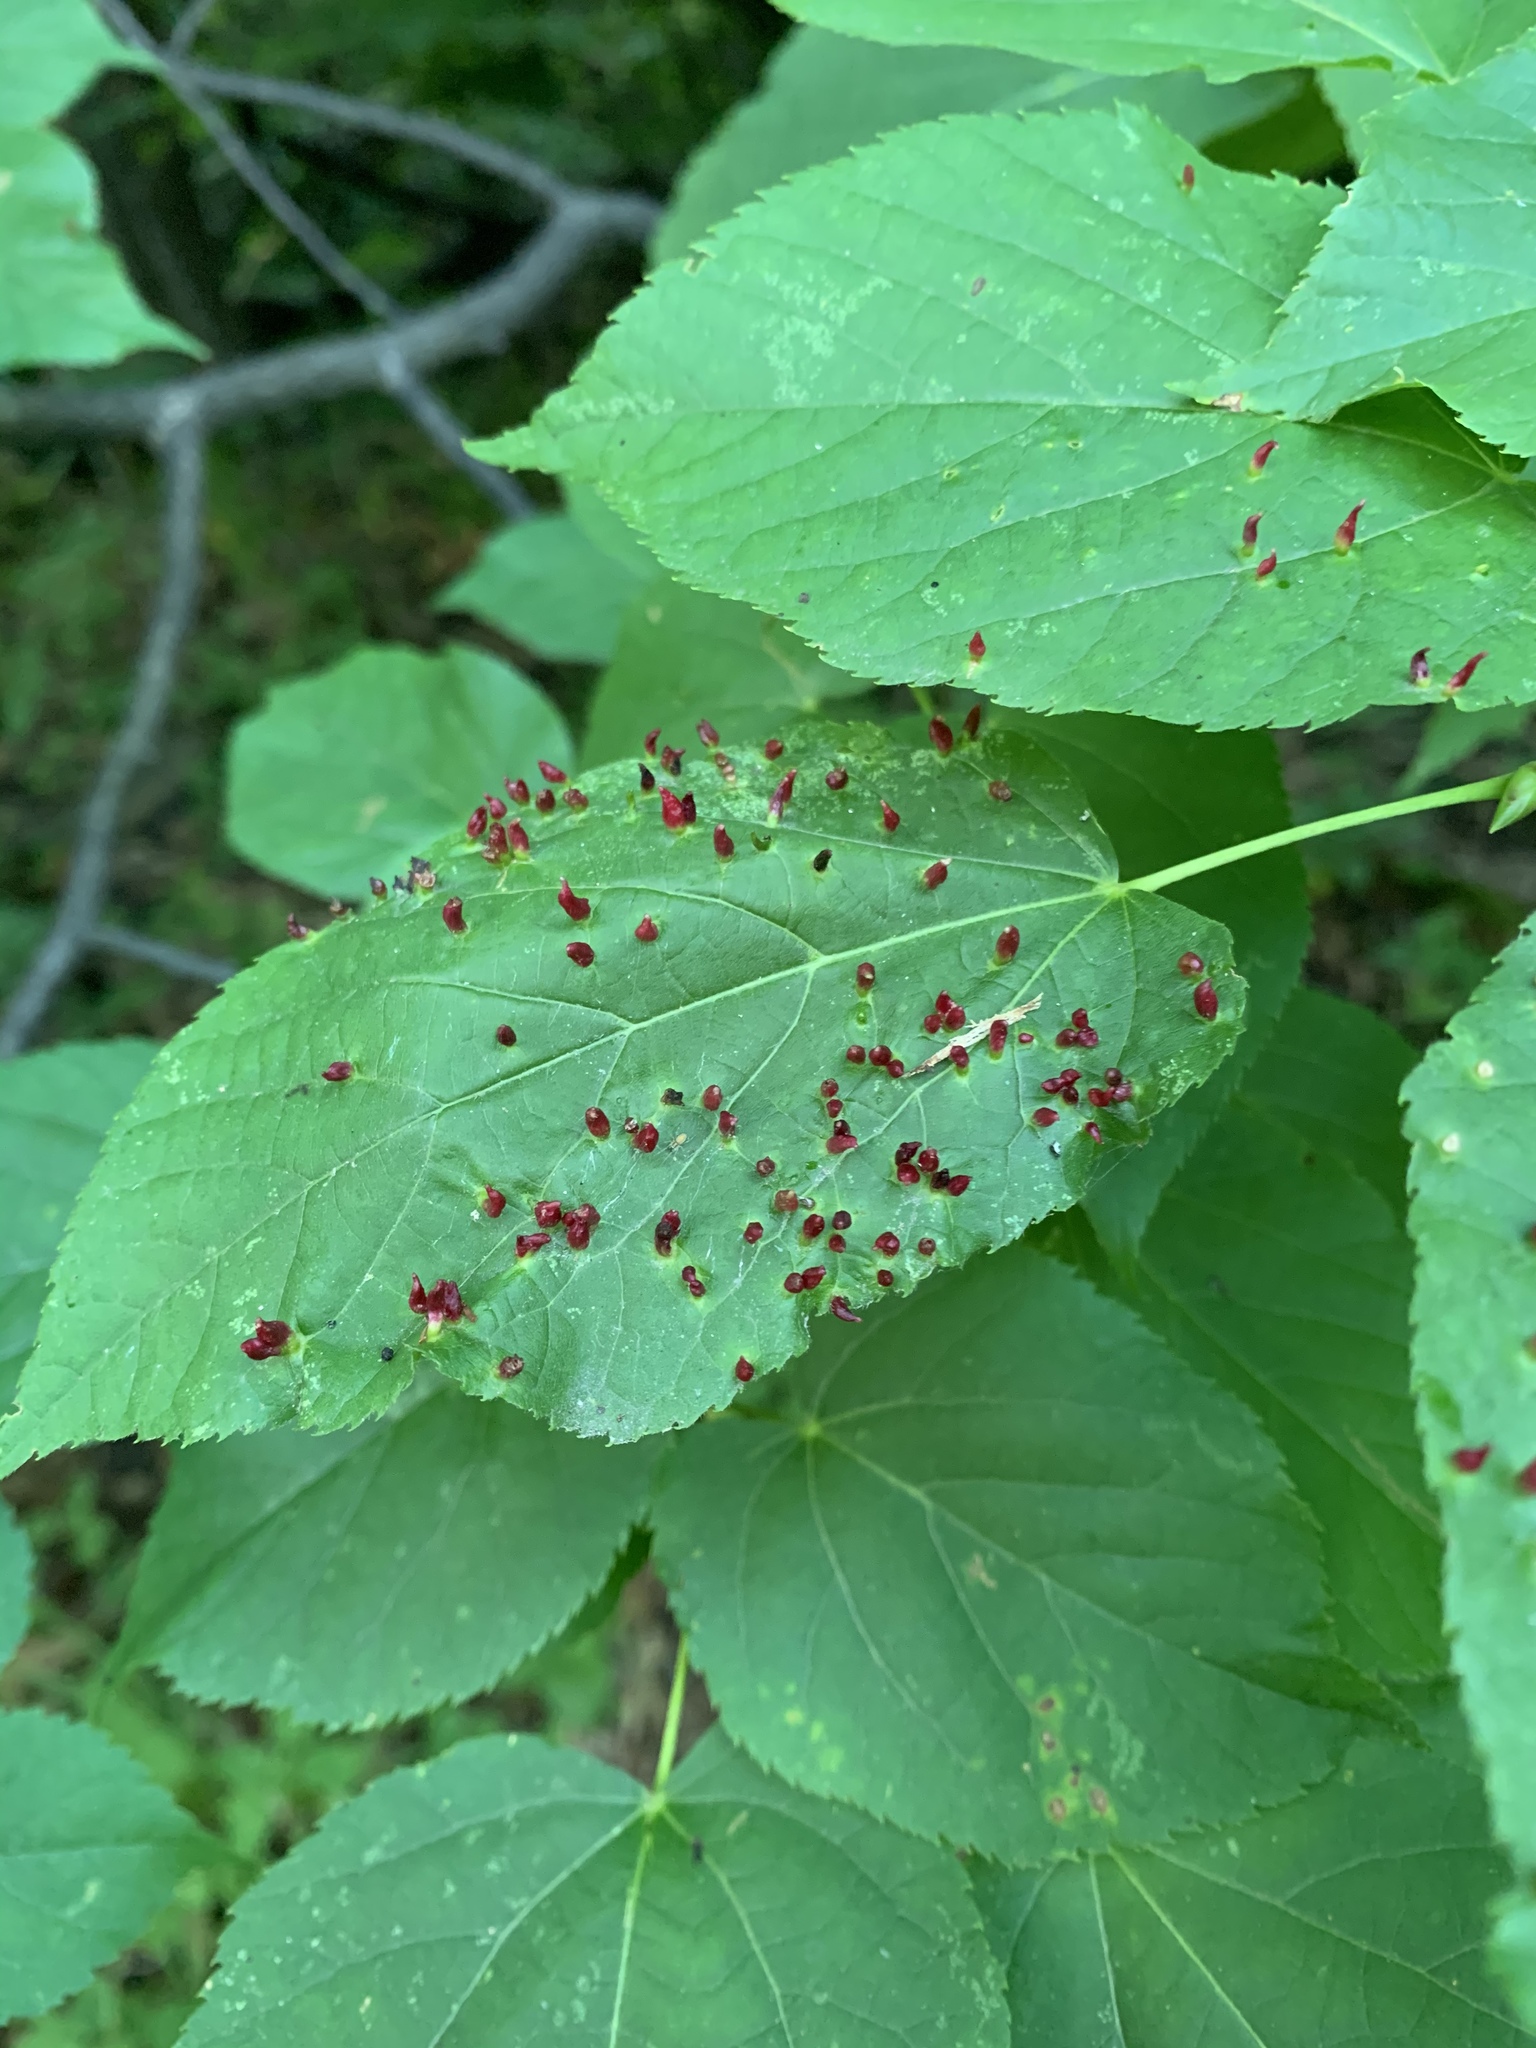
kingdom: Animalia
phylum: Arthropoda
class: Arachnida
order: Trombidiformes
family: Eriophyidae
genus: Eriophyes
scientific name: Eriophyes tiliae
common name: Red nail gall mite
